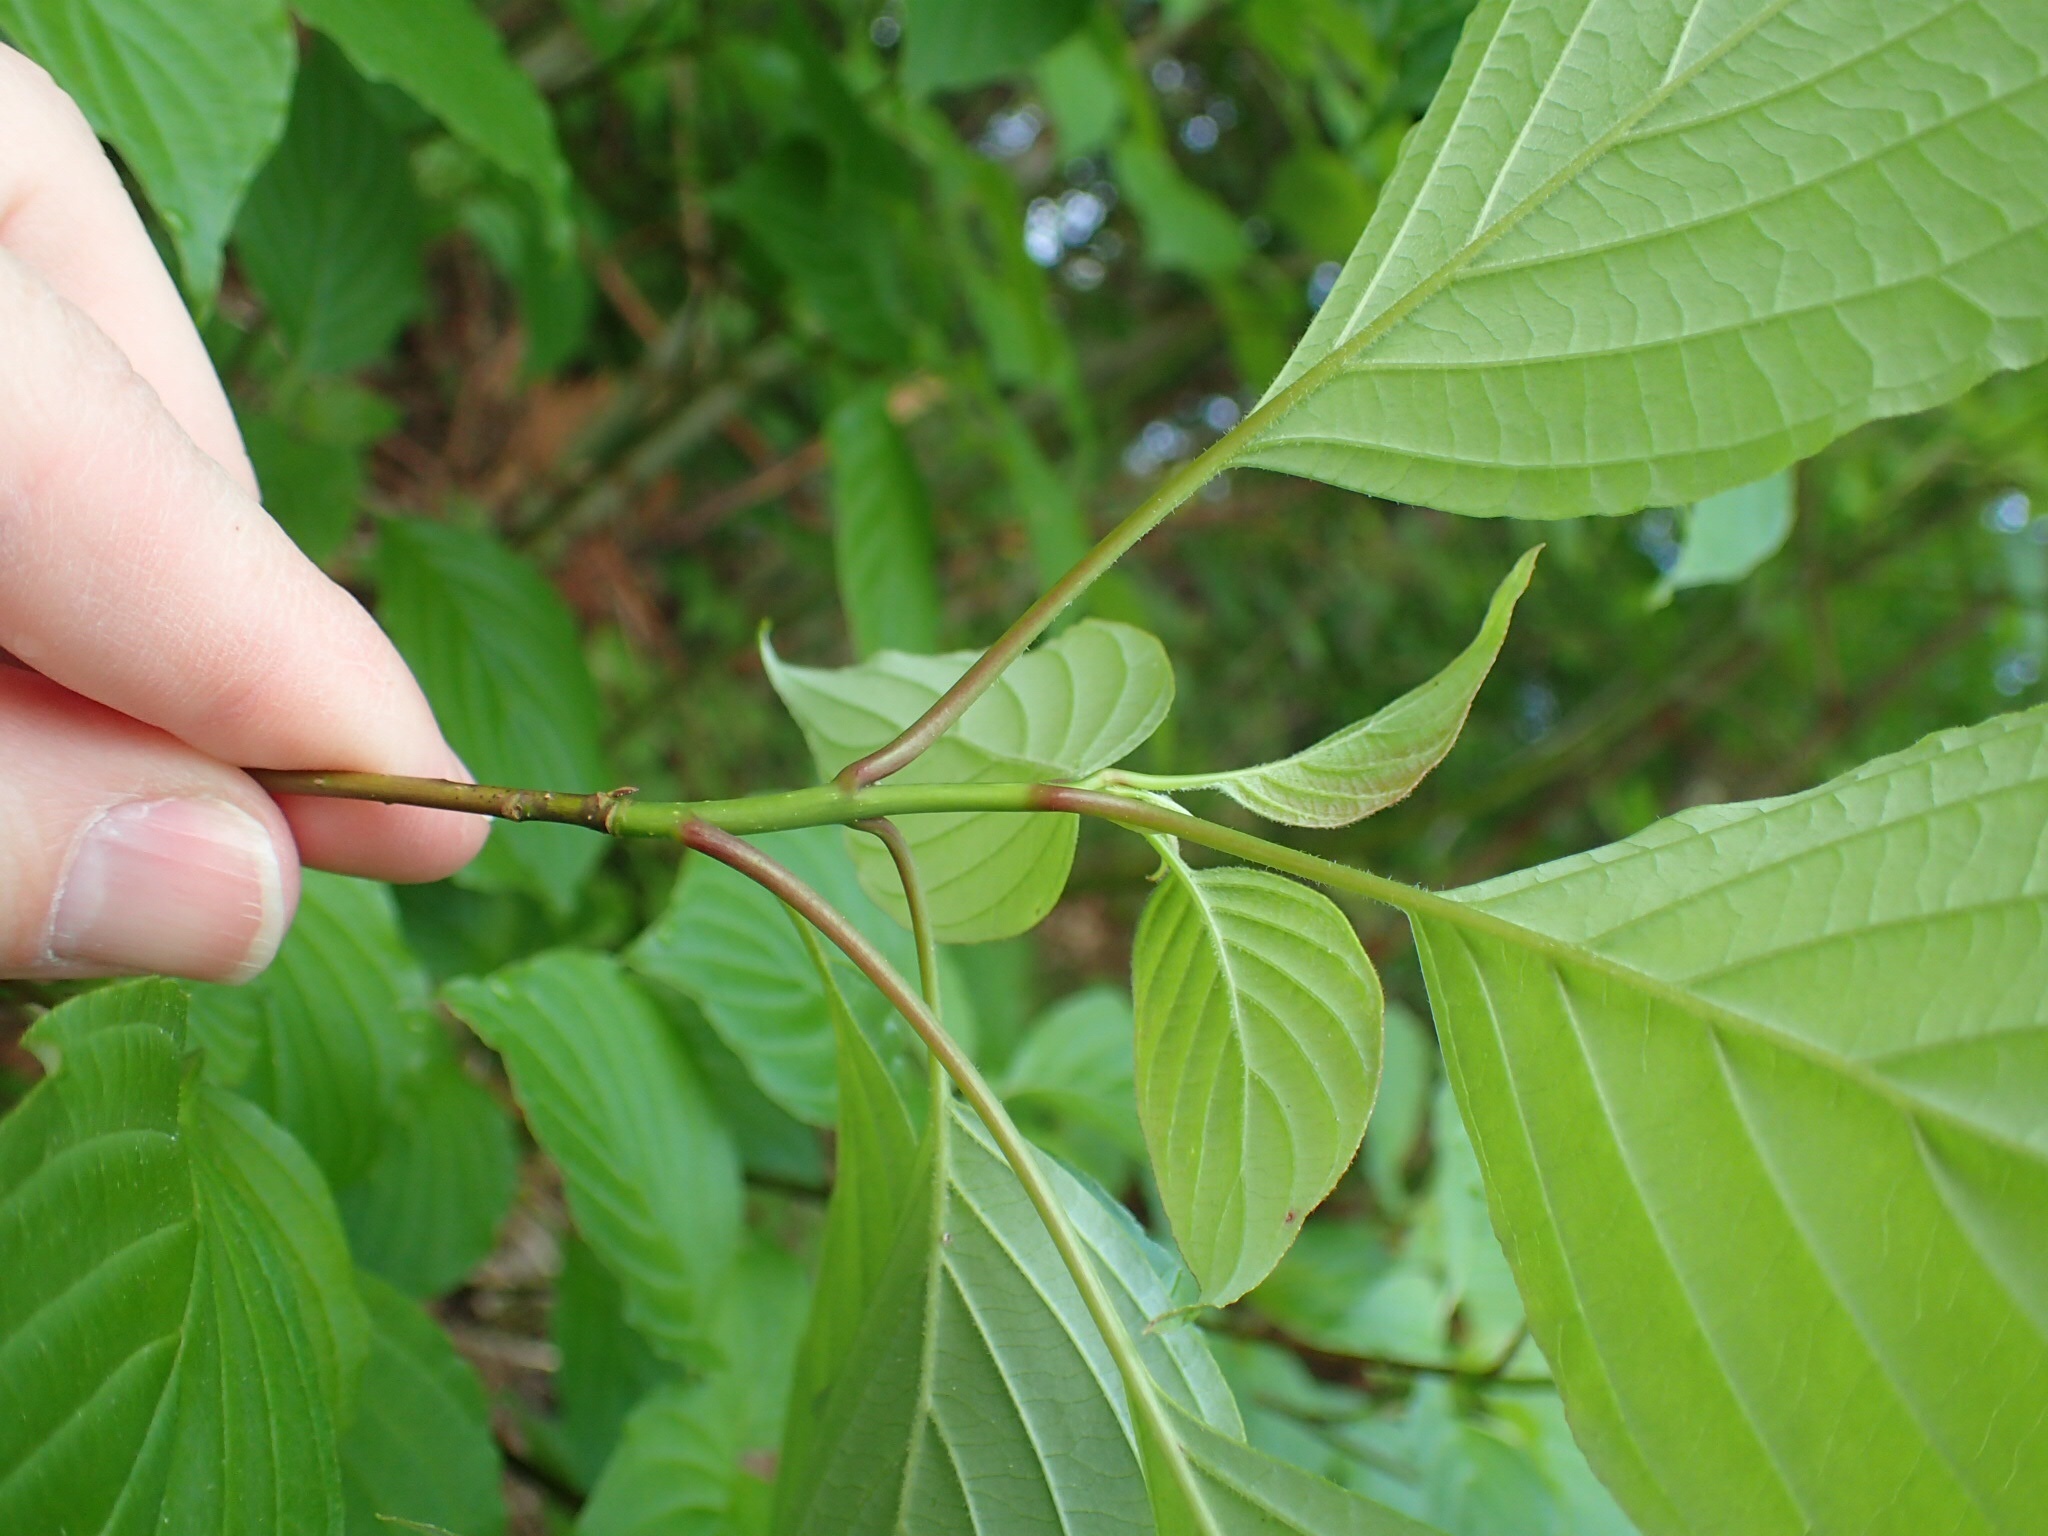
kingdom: Plantae
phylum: Tracheophyta
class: Magnoliopsida
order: Cornales
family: Cornaceae
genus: Cornus
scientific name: Cornus alternifolia
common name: Pagoda dogwood
